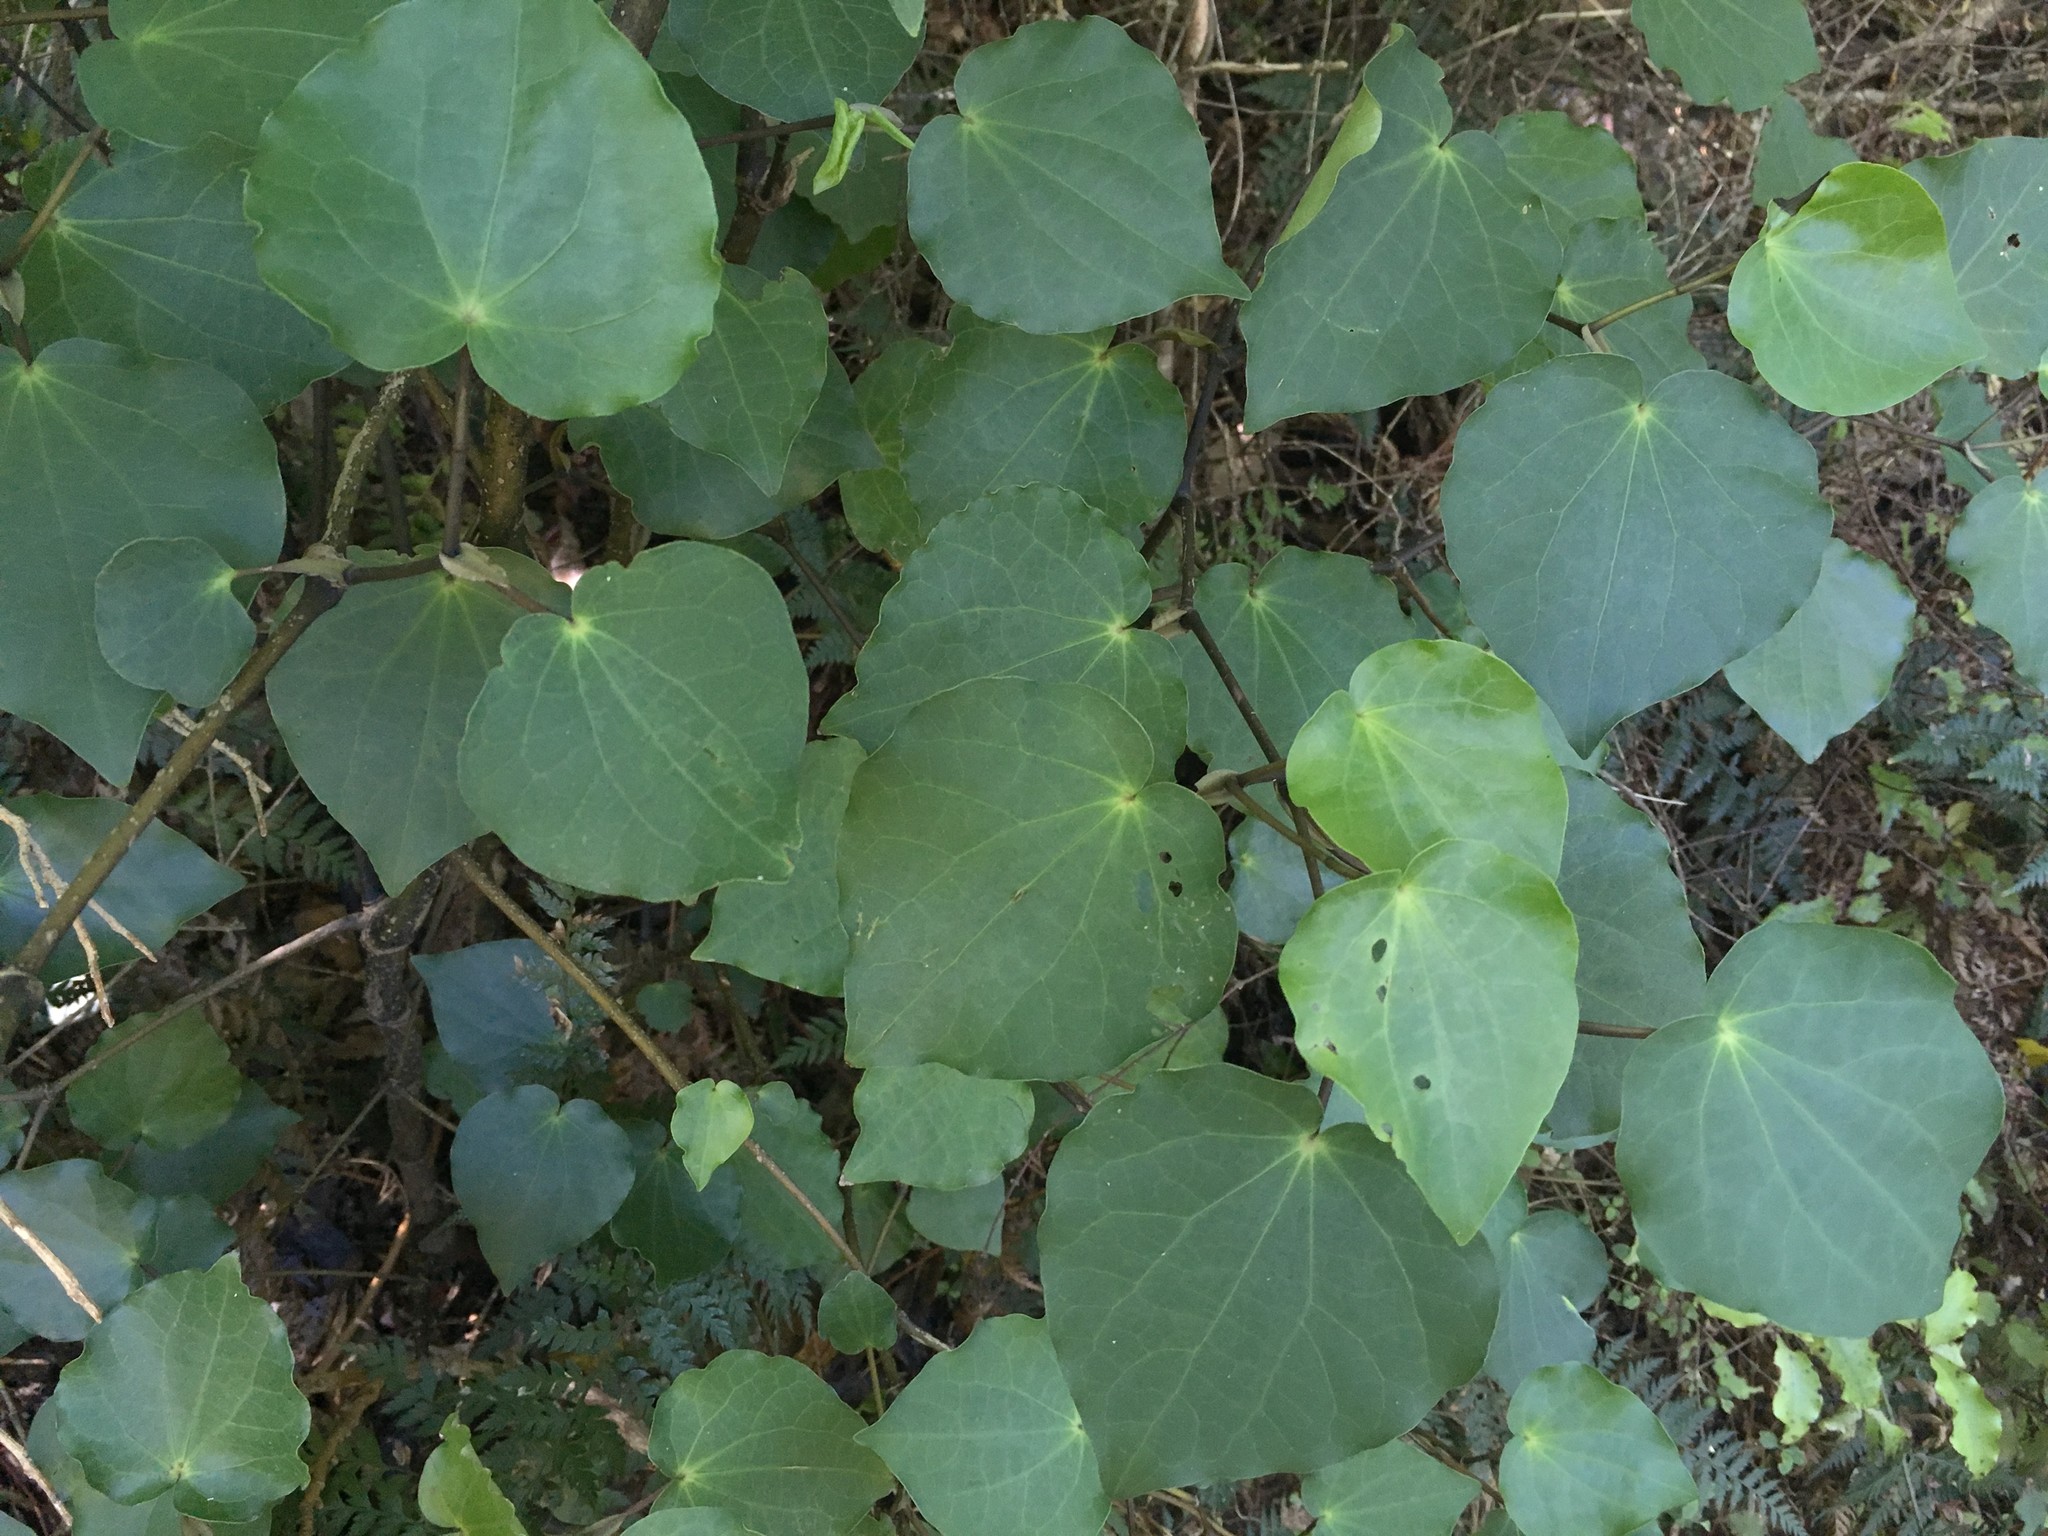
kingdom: Plantae
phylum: Tracheophyta
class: Magnoliopsida
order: Piperales
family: Piperaceae
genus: Macropiper
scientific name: Macropiper excelsum
